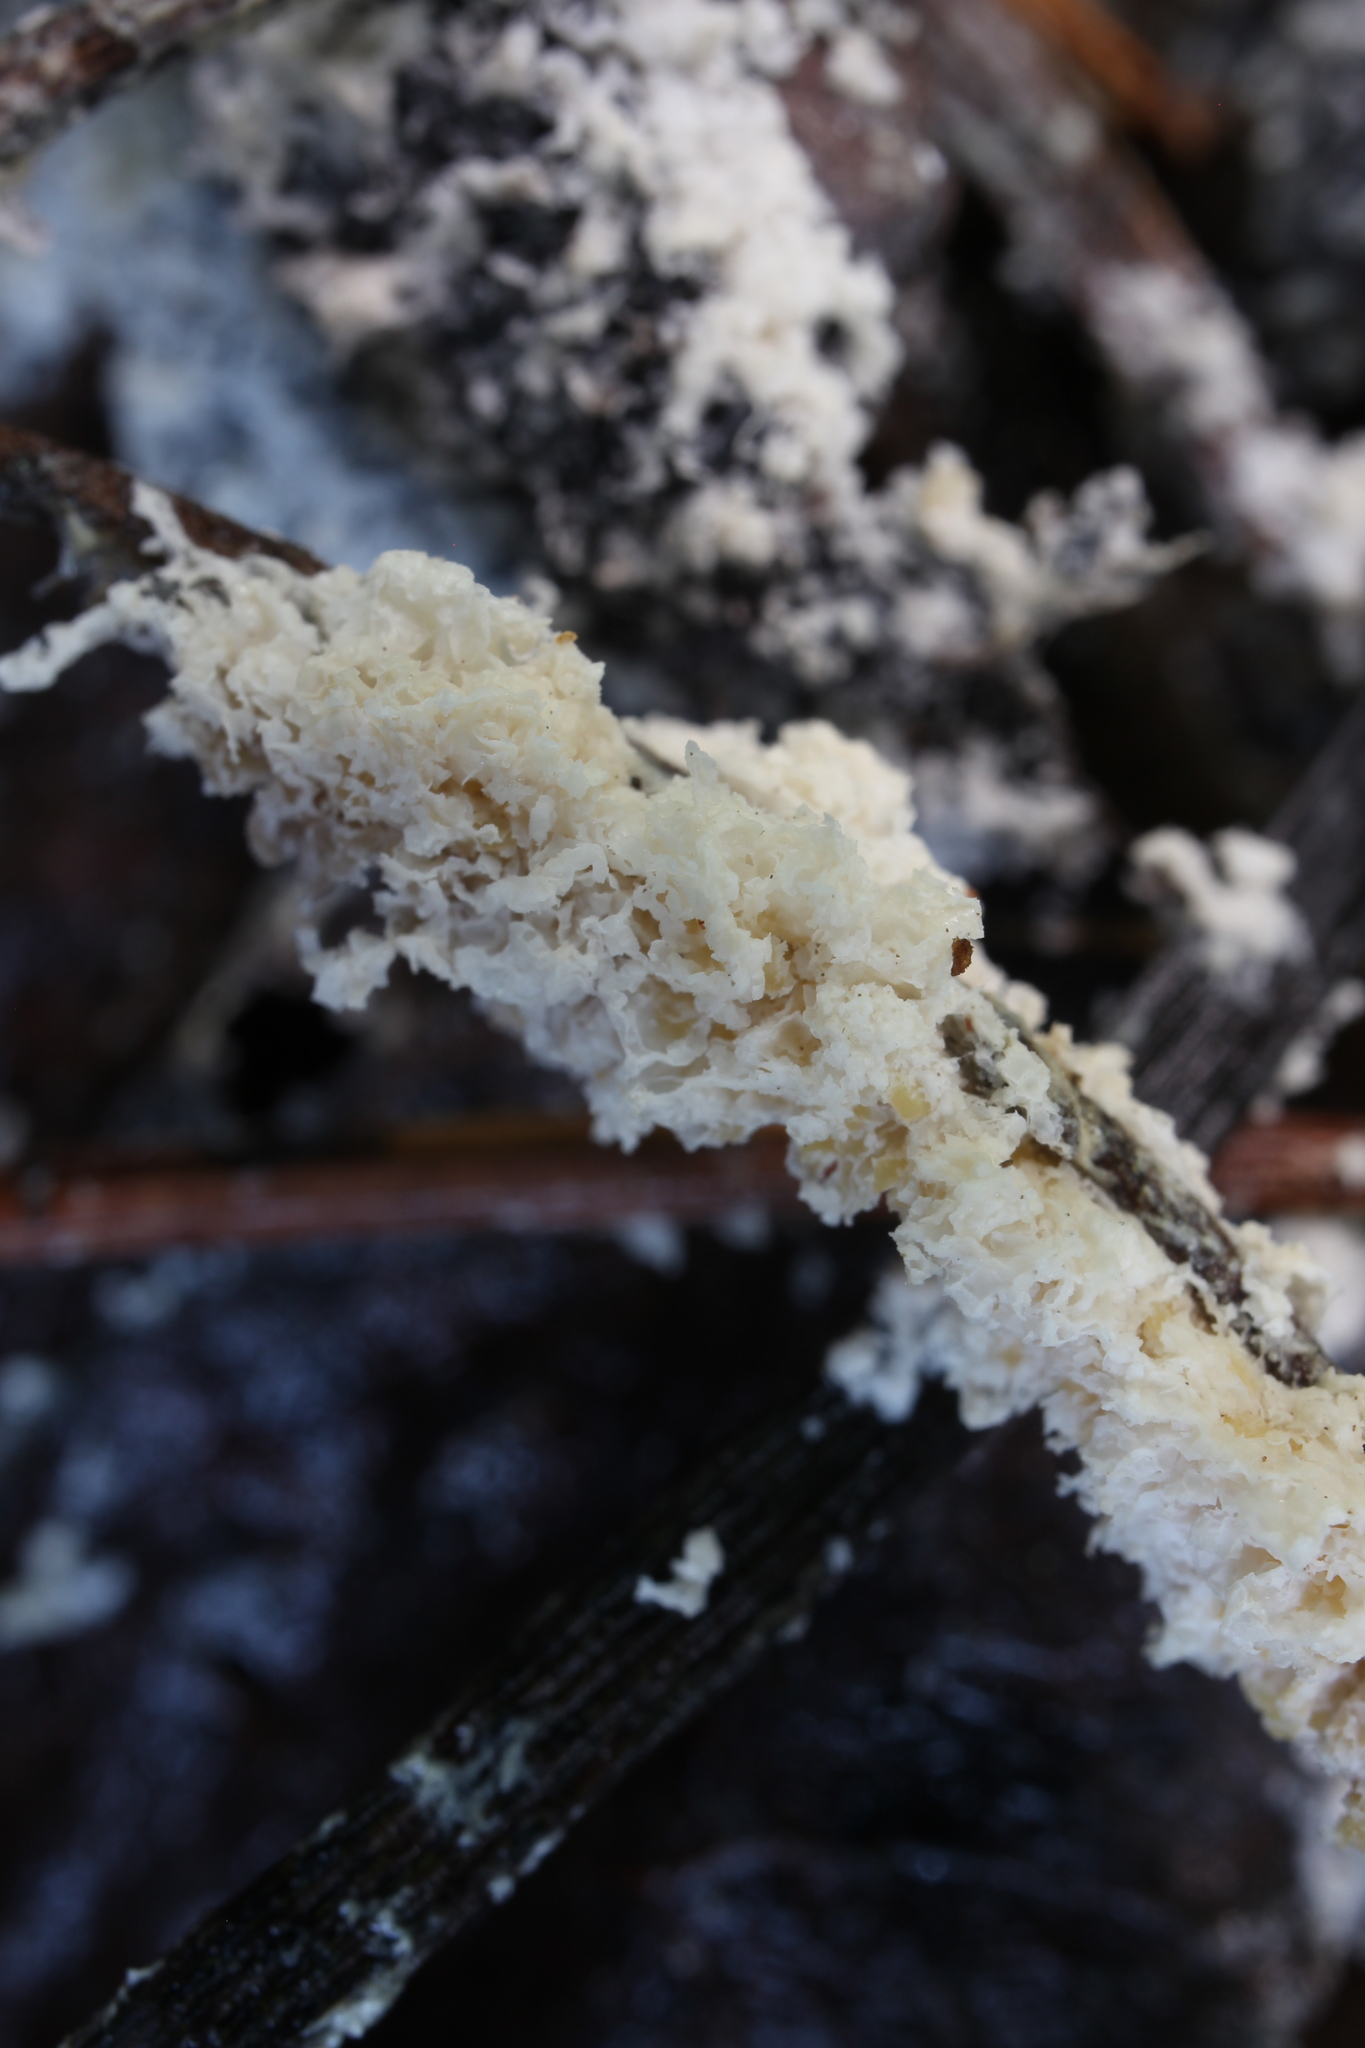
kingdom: Protozoa
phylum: Mycetozoa
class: Myxomycetes
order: Physarales
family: Physaraceae
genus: Didymium
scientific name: Didymium
